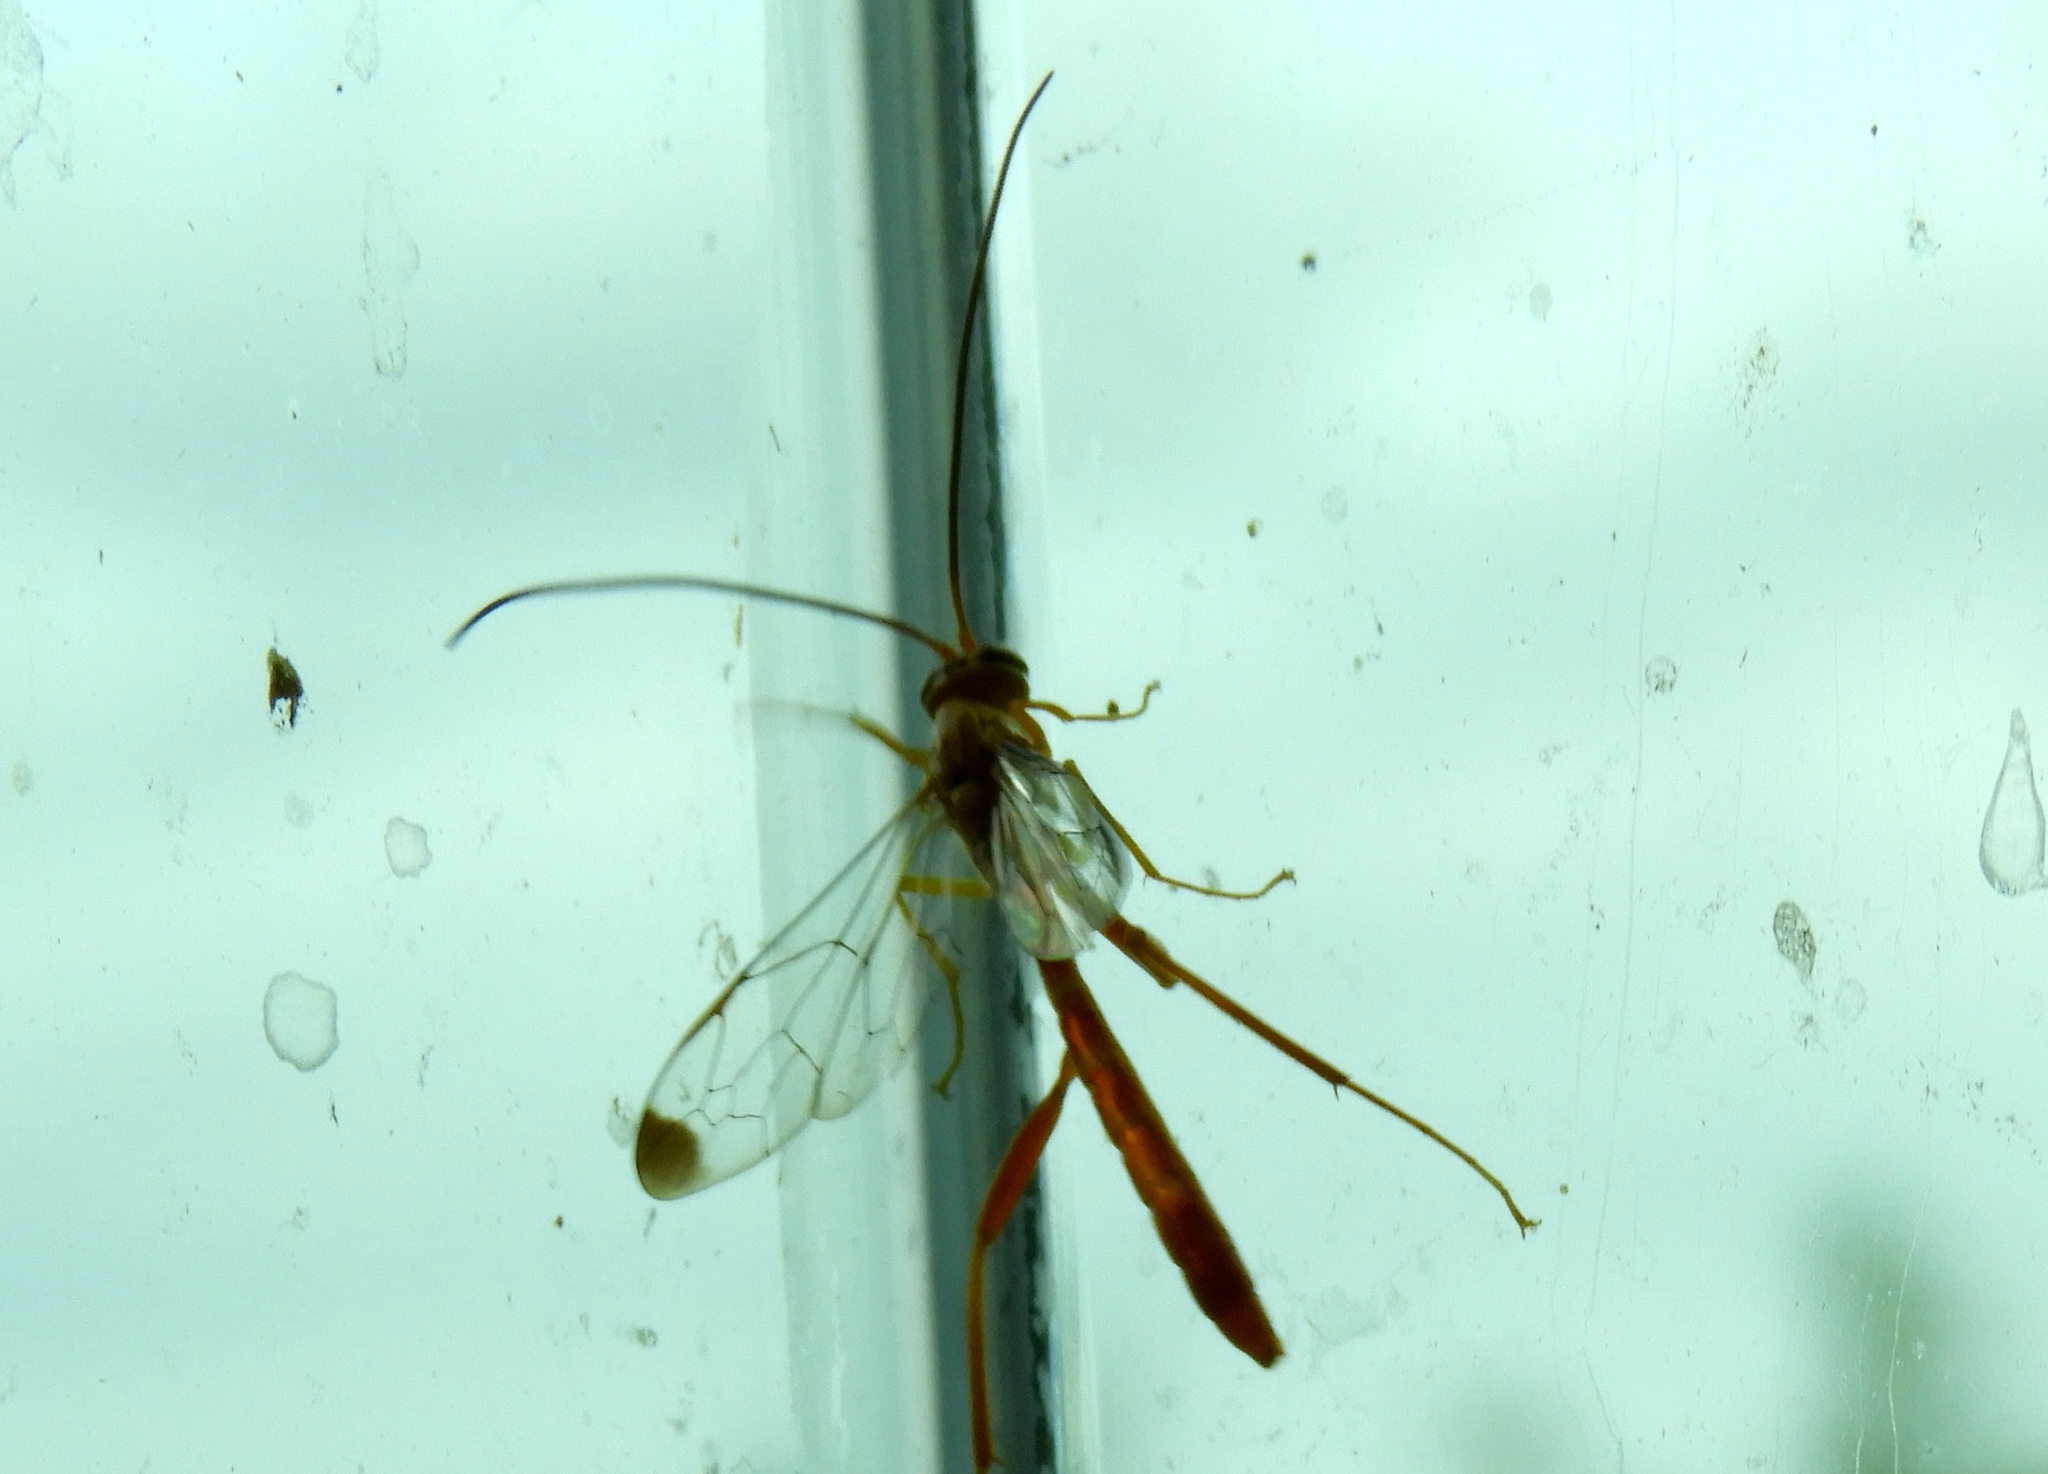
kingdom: Animalia
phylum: Arthropoda
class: Insecta
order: Hymenoptera
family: Ichneumonidae
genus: Ophion
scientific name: Ophion
